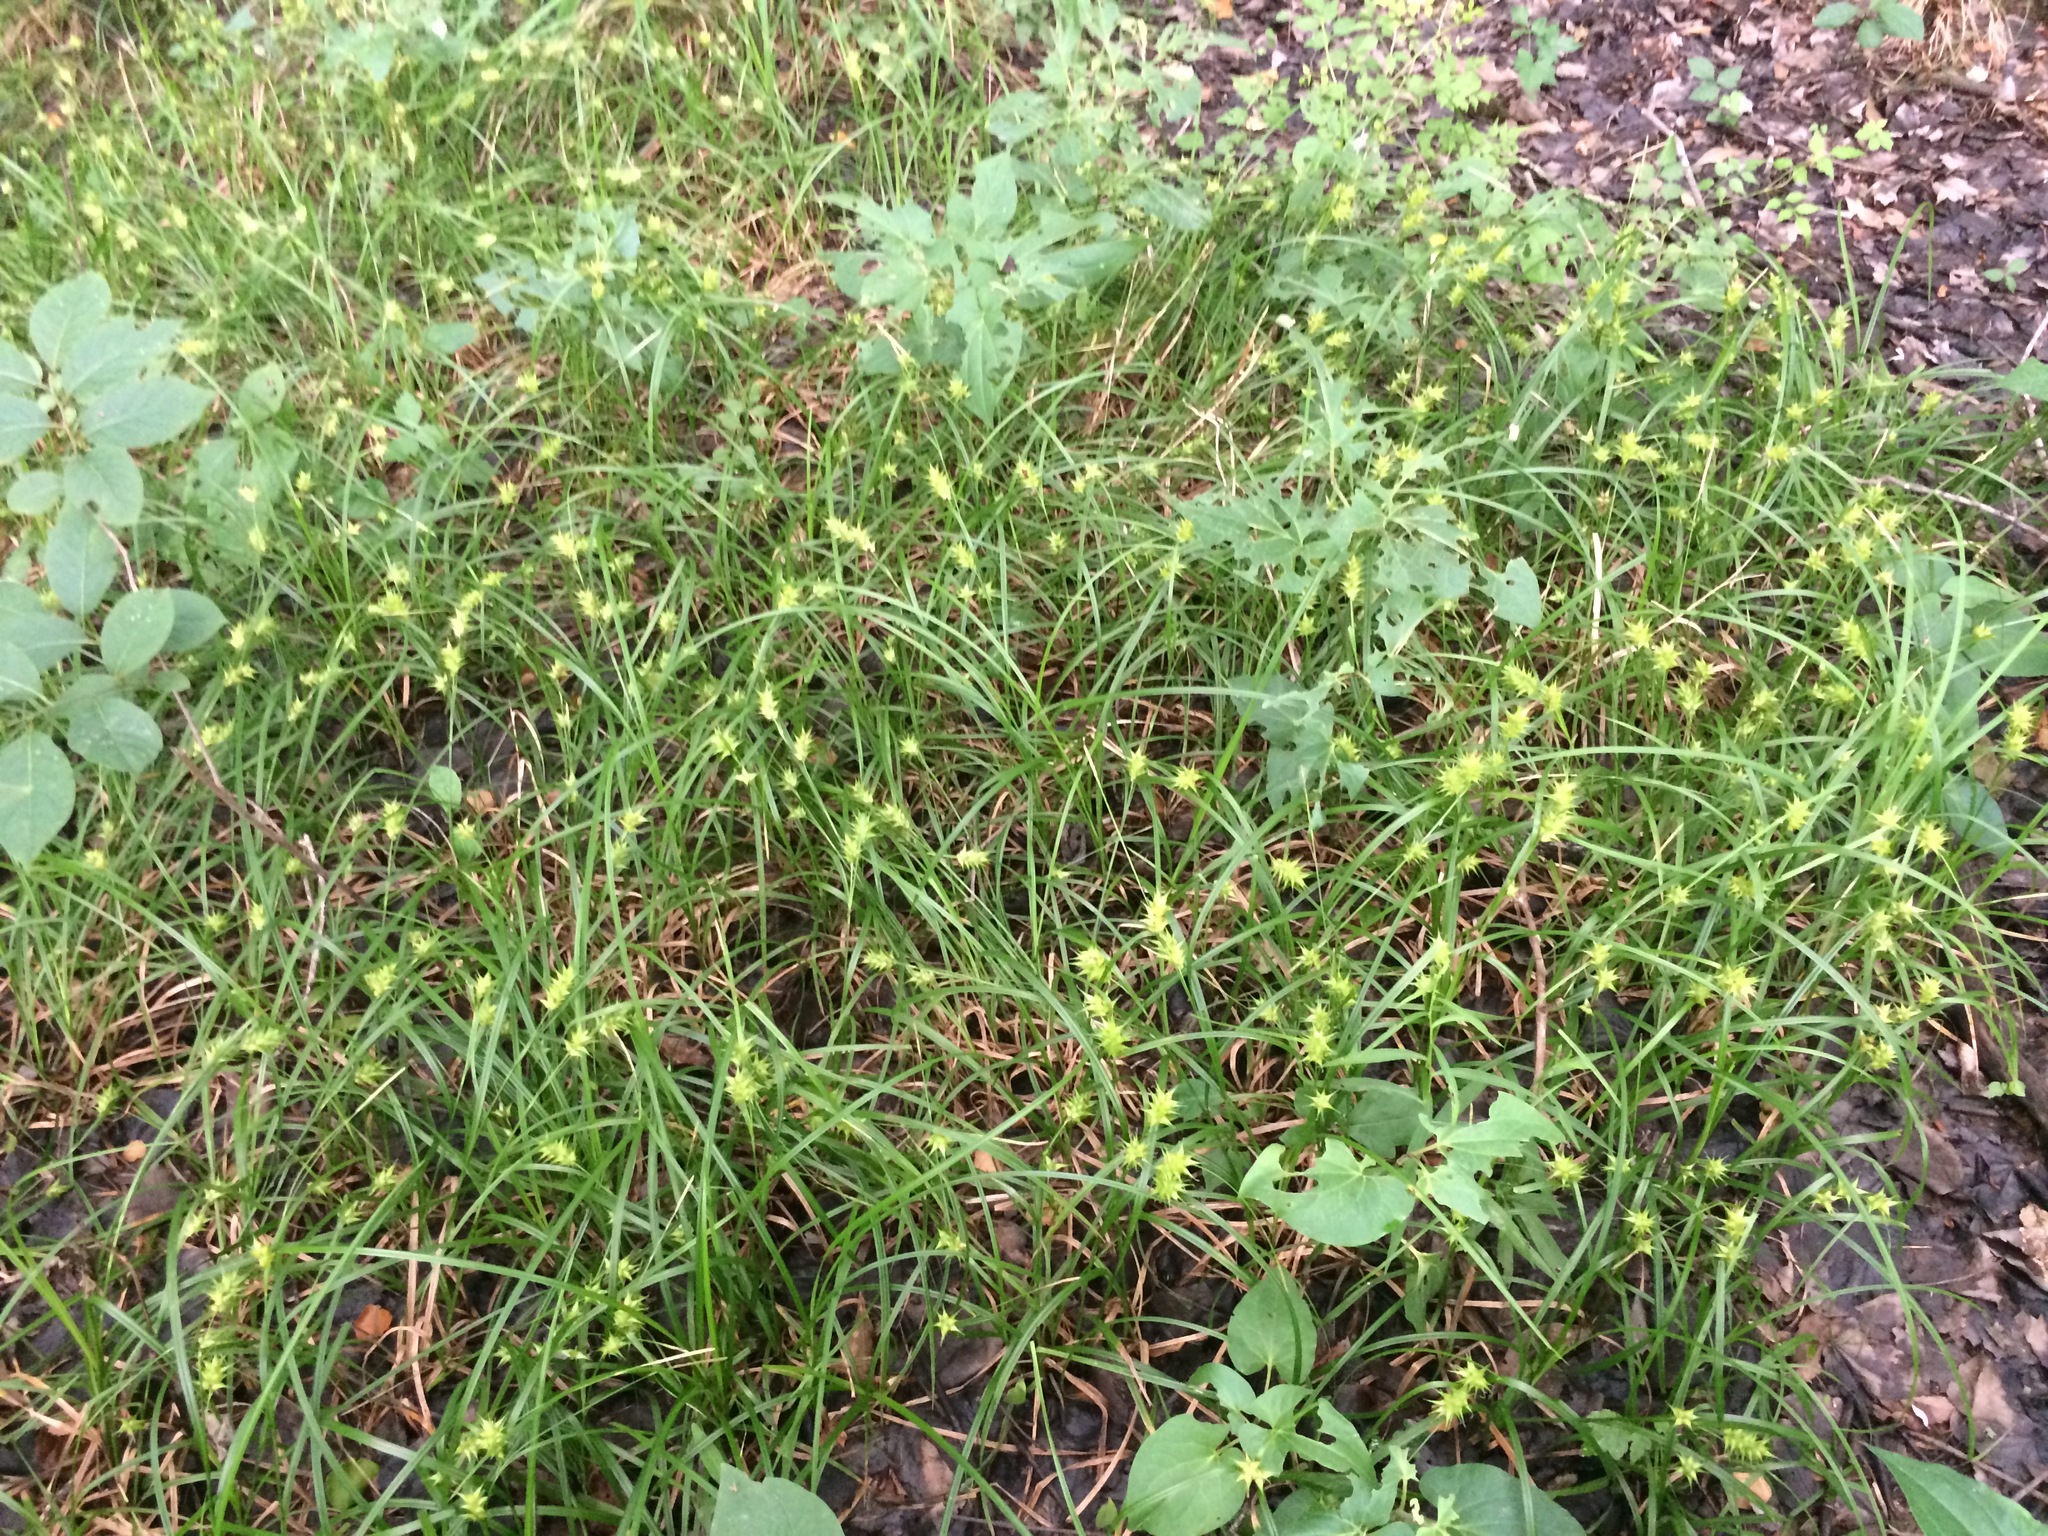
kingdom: Plantae
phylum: Tracheophyta
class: Liliopsida
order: Poales
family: Cyperaceae
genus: Carex
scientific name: Carex louisianica
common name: Louisiana sedge
